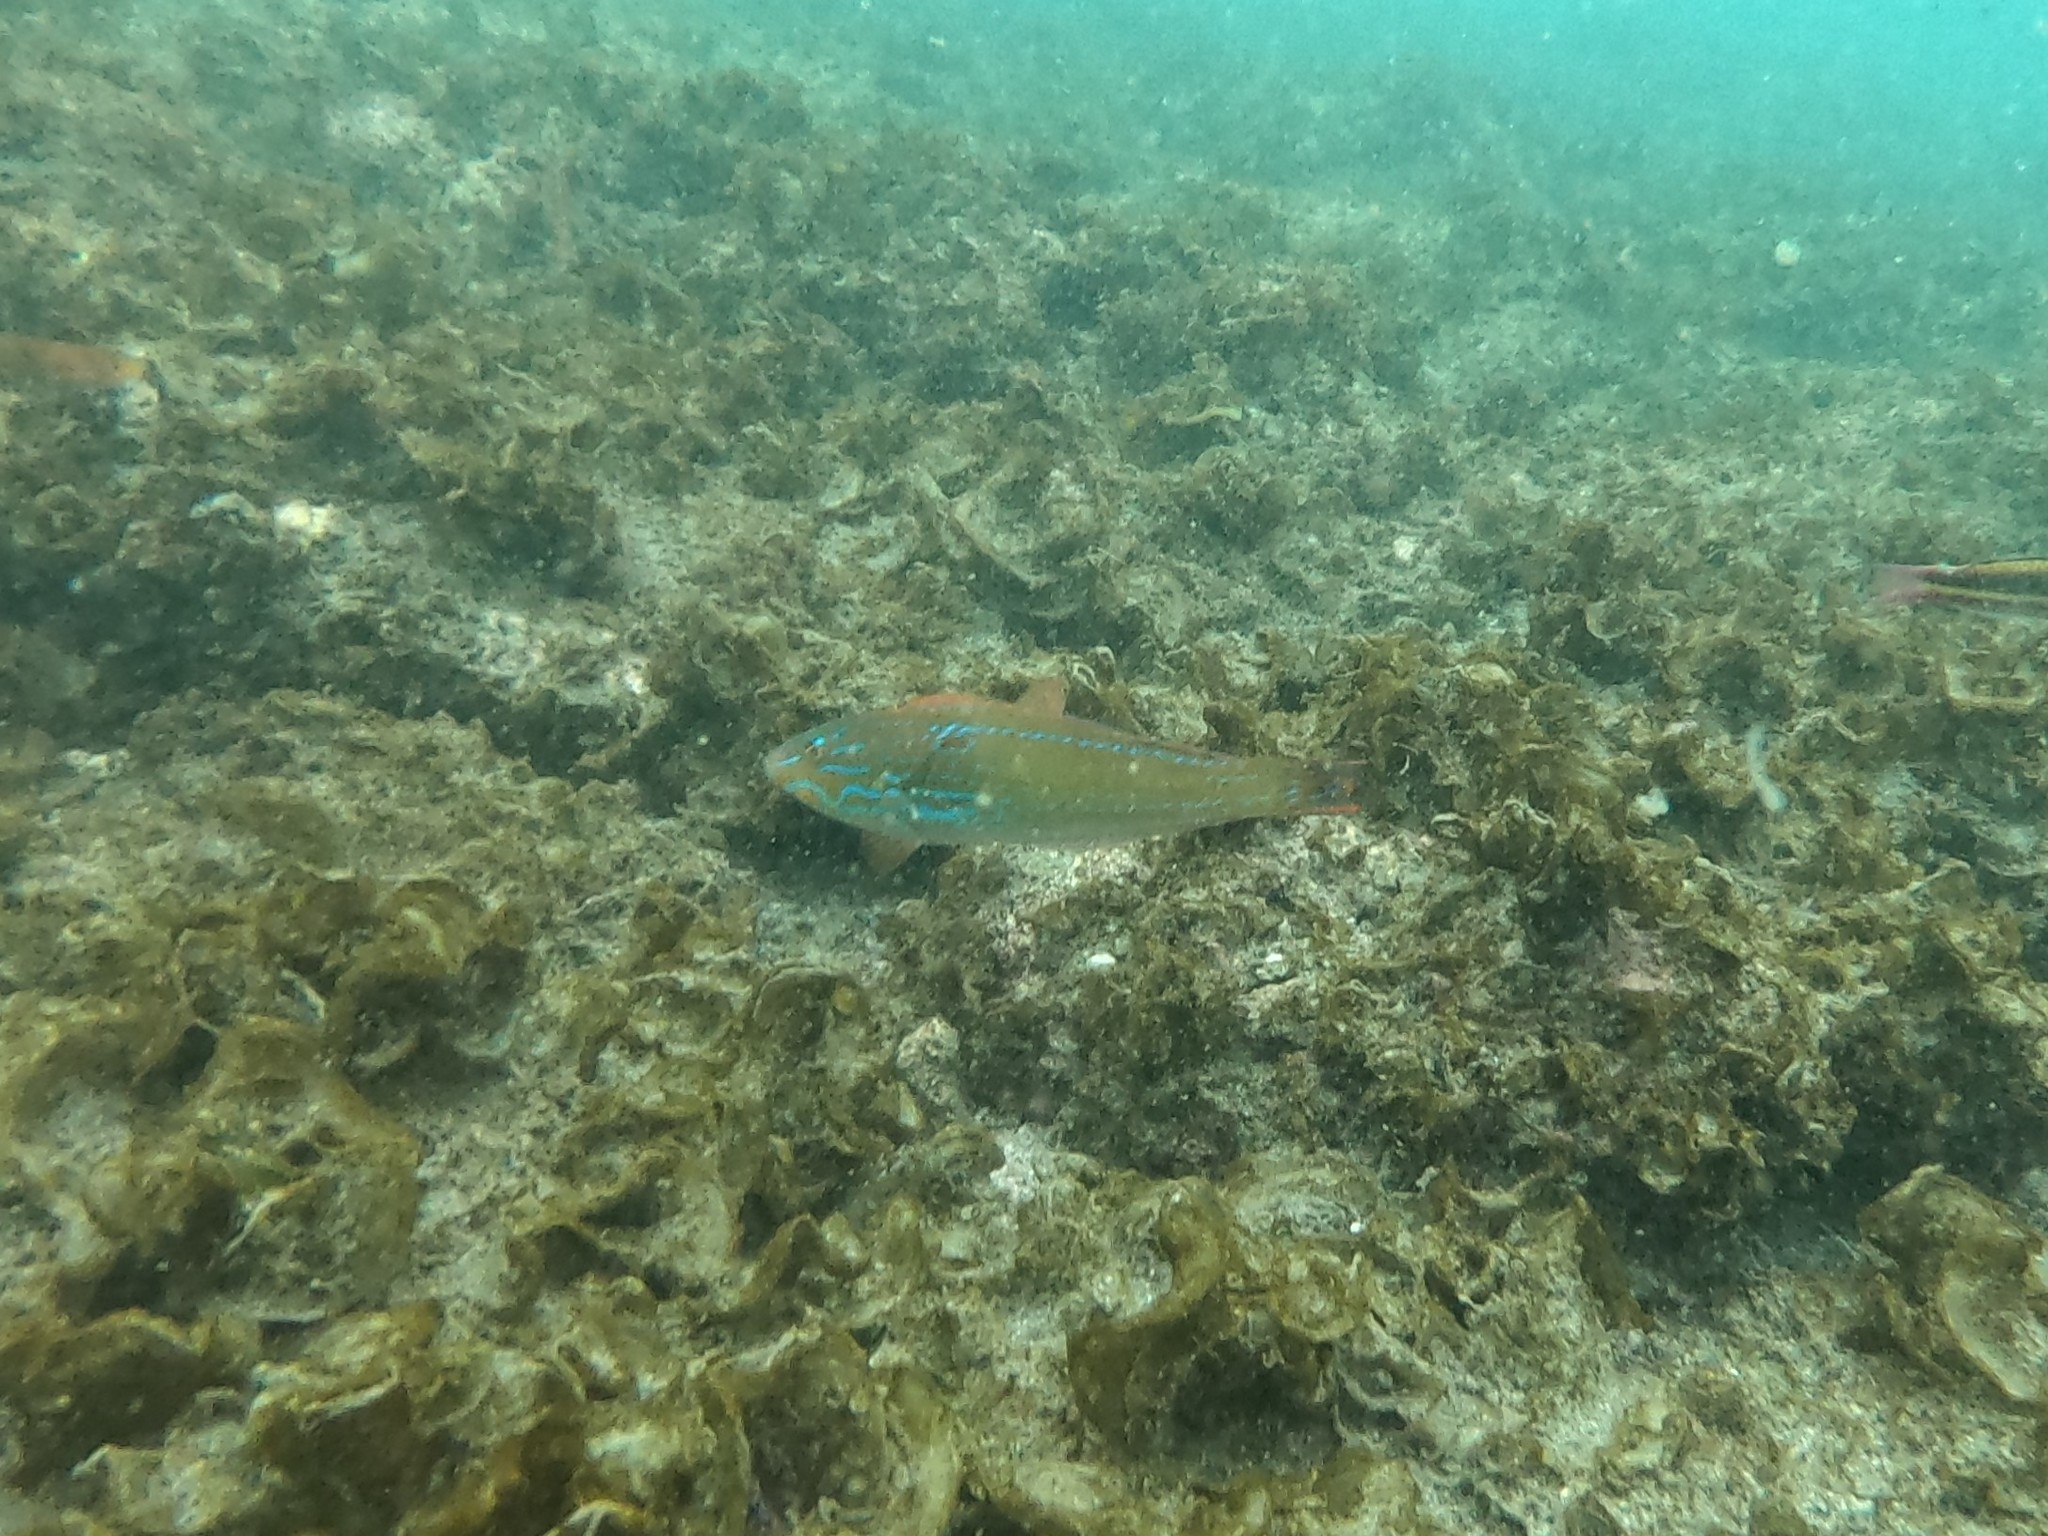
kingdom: Animalia
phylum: Chordata
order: Perciformes
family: Labridae
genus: Halichoeres
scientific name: Halichoeres dispilus
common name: Chameleon wrasse
